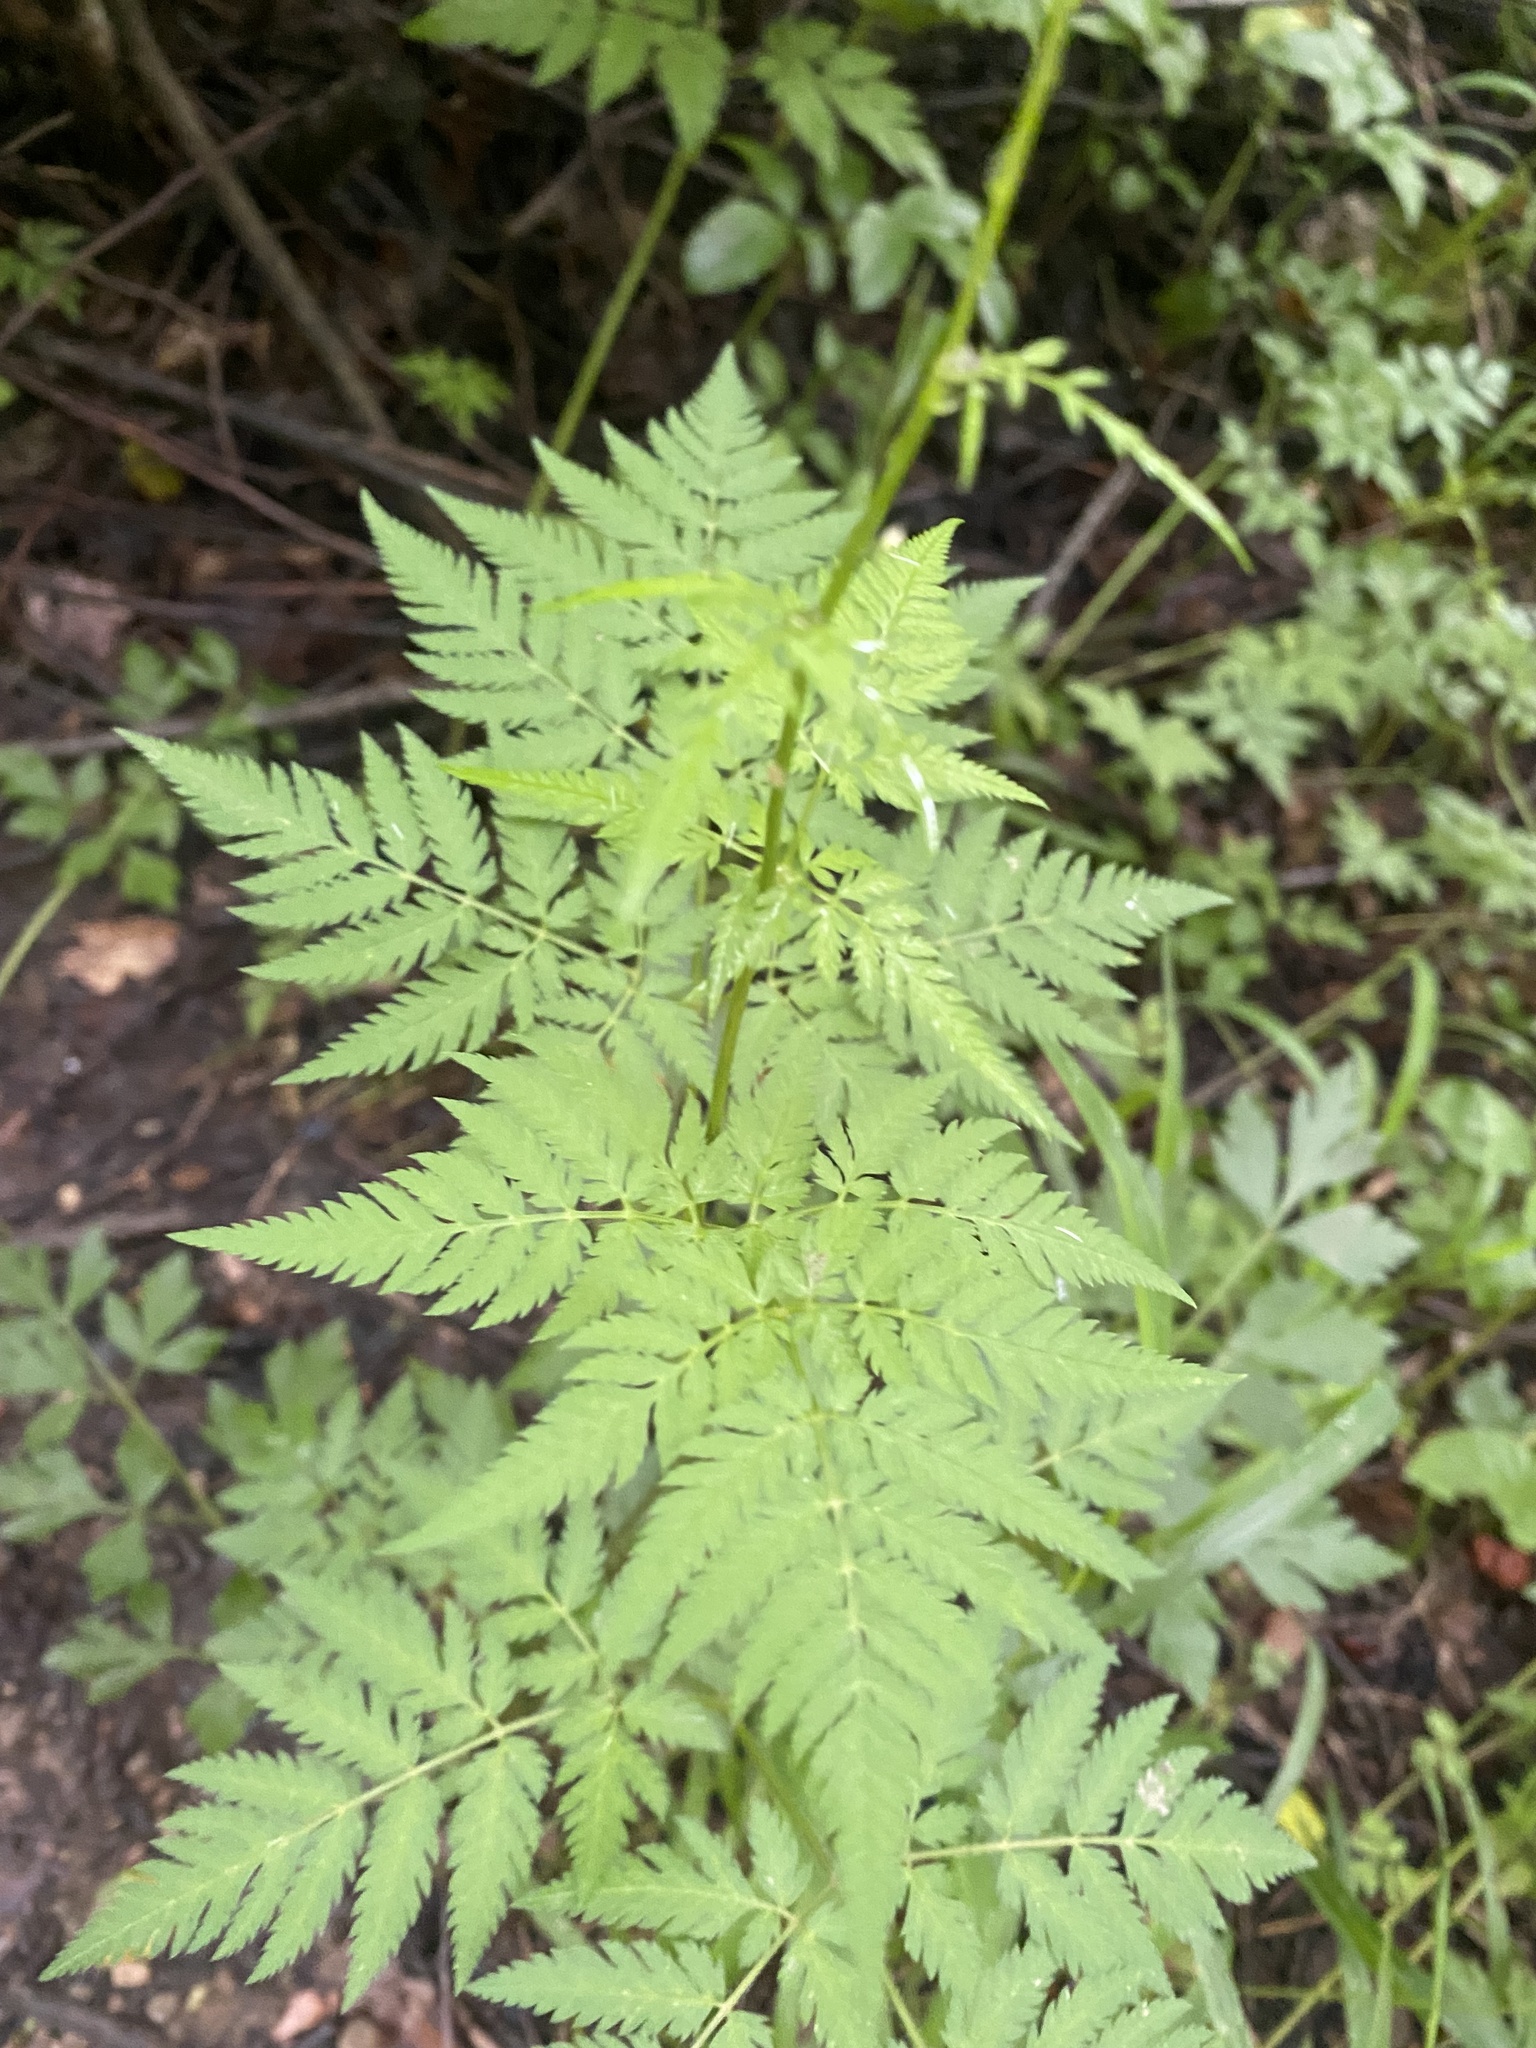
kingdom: Plantae
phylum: Tracheophyta
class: Magnoliopsida
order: Apiales
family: Apiaceae
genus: Chaerophyllum
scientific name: Chaerophyllum aureum
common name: Golden chervil
